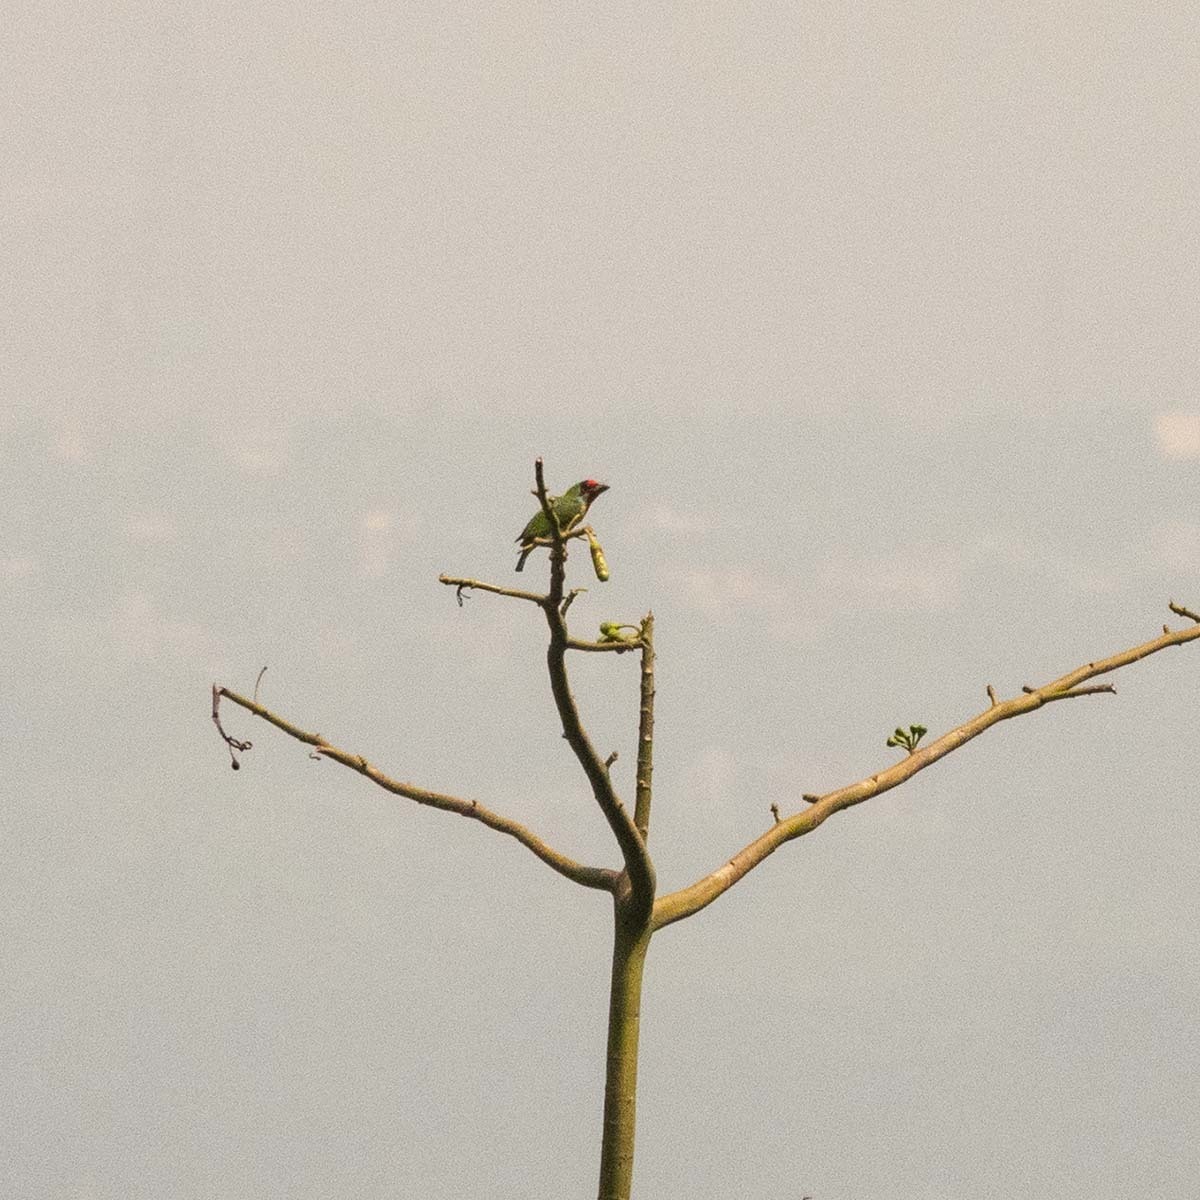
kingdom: Animalia
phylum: Chordata
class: Aves
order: Piciformes
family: Megalaimidae
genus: Psilopogon
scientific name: Psilopogon malabaricus
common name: Malabar barbet
